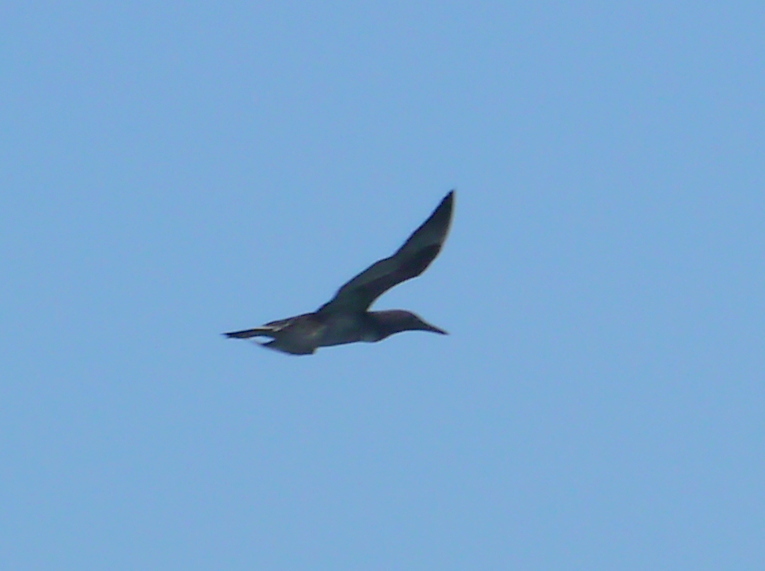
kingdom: Animalia
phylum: Chordata
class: Aves
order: Suliformes
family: Sulidae
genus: Morus
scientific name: Morus bassanus
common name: Northern gannet
